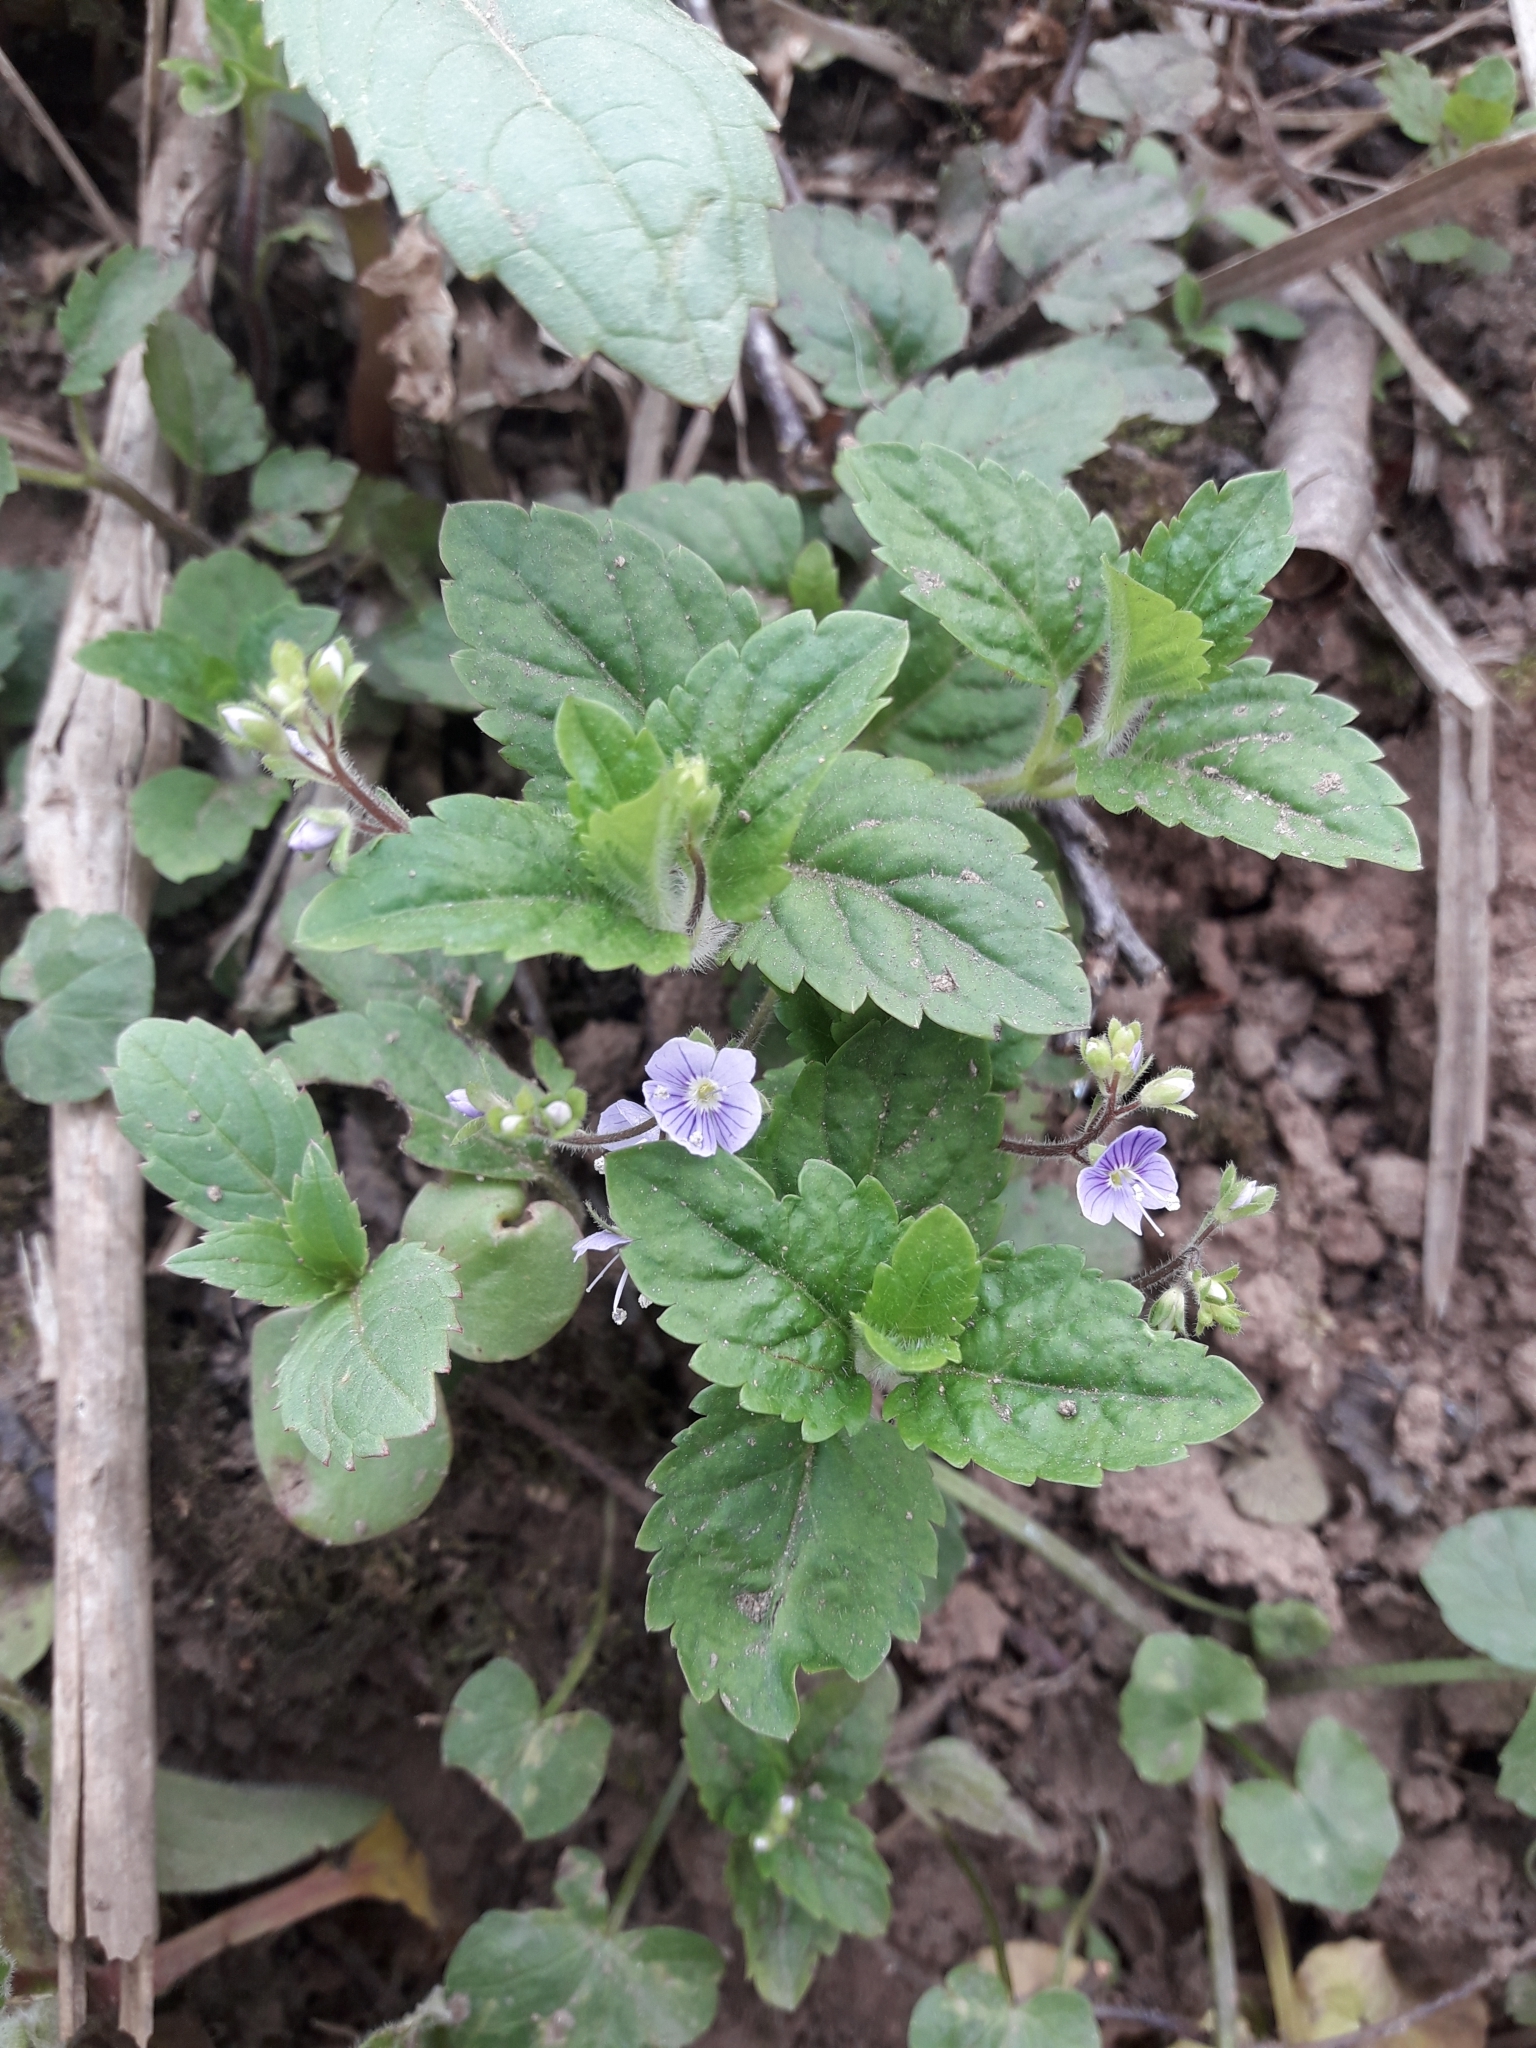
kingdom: Plantae
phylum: Tracheophyta
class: Magnoliopsida
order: Lamiales
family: Plantaginaceae
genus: Veronica
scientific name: Veronica montana
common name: Wood speedwell
